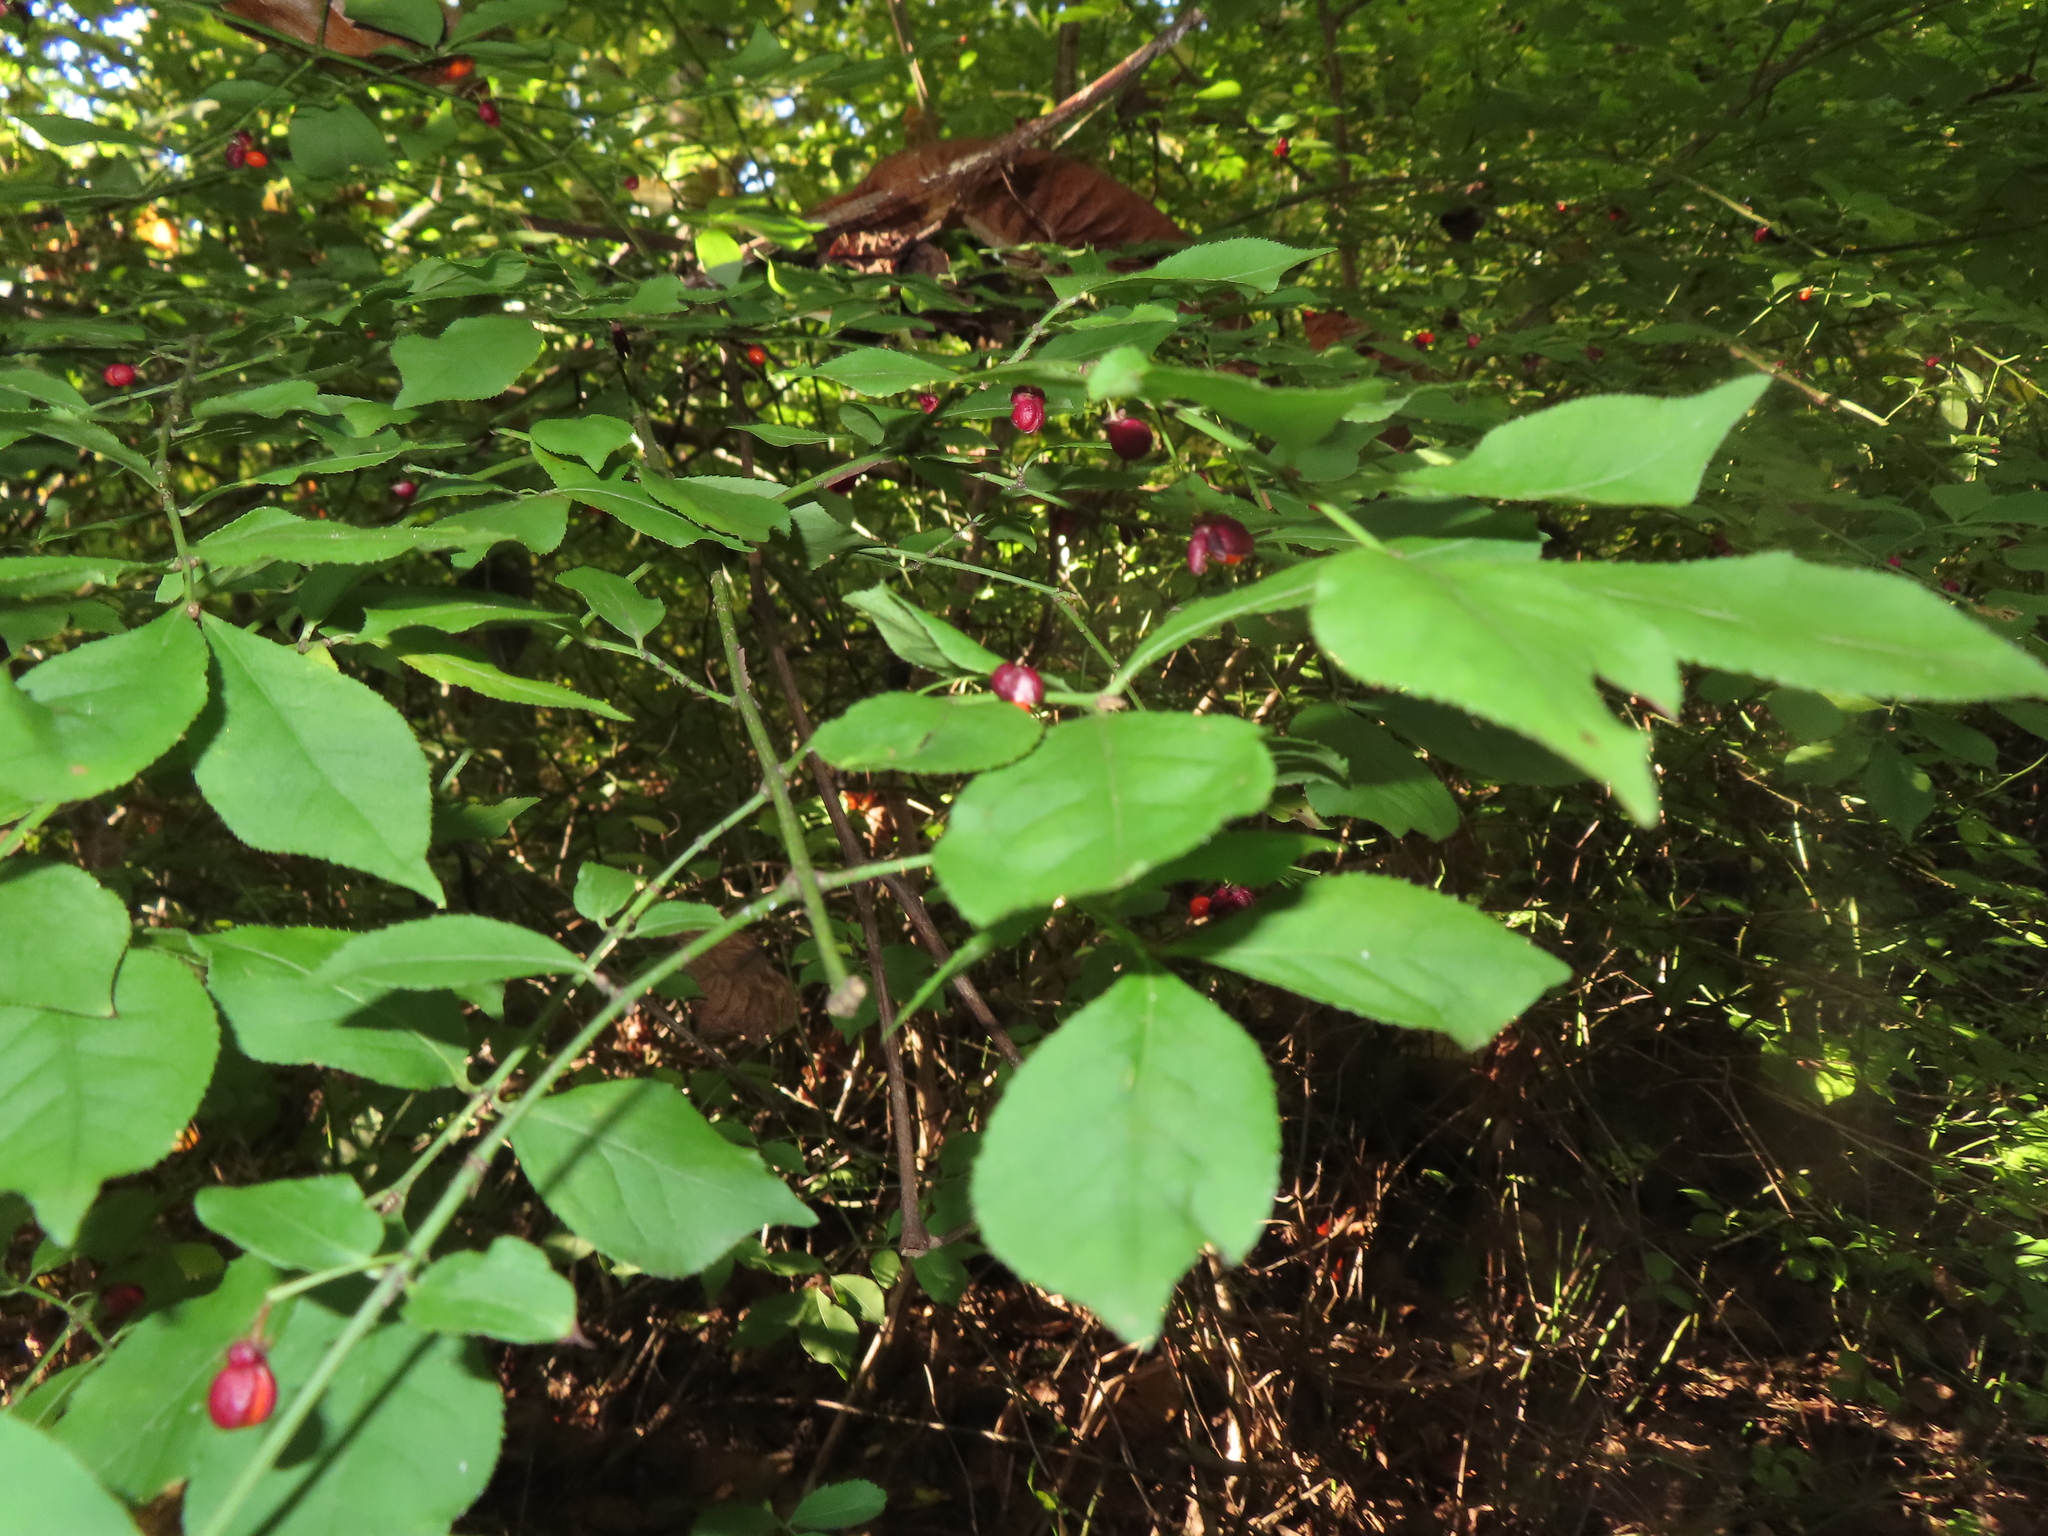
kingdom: Plantae
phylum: Tracheophyta
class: Magnoliopsida
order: Celastrales
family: Celastraceae
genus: Euonymus
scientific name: Euonymus alatus
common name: Winged euonymus
